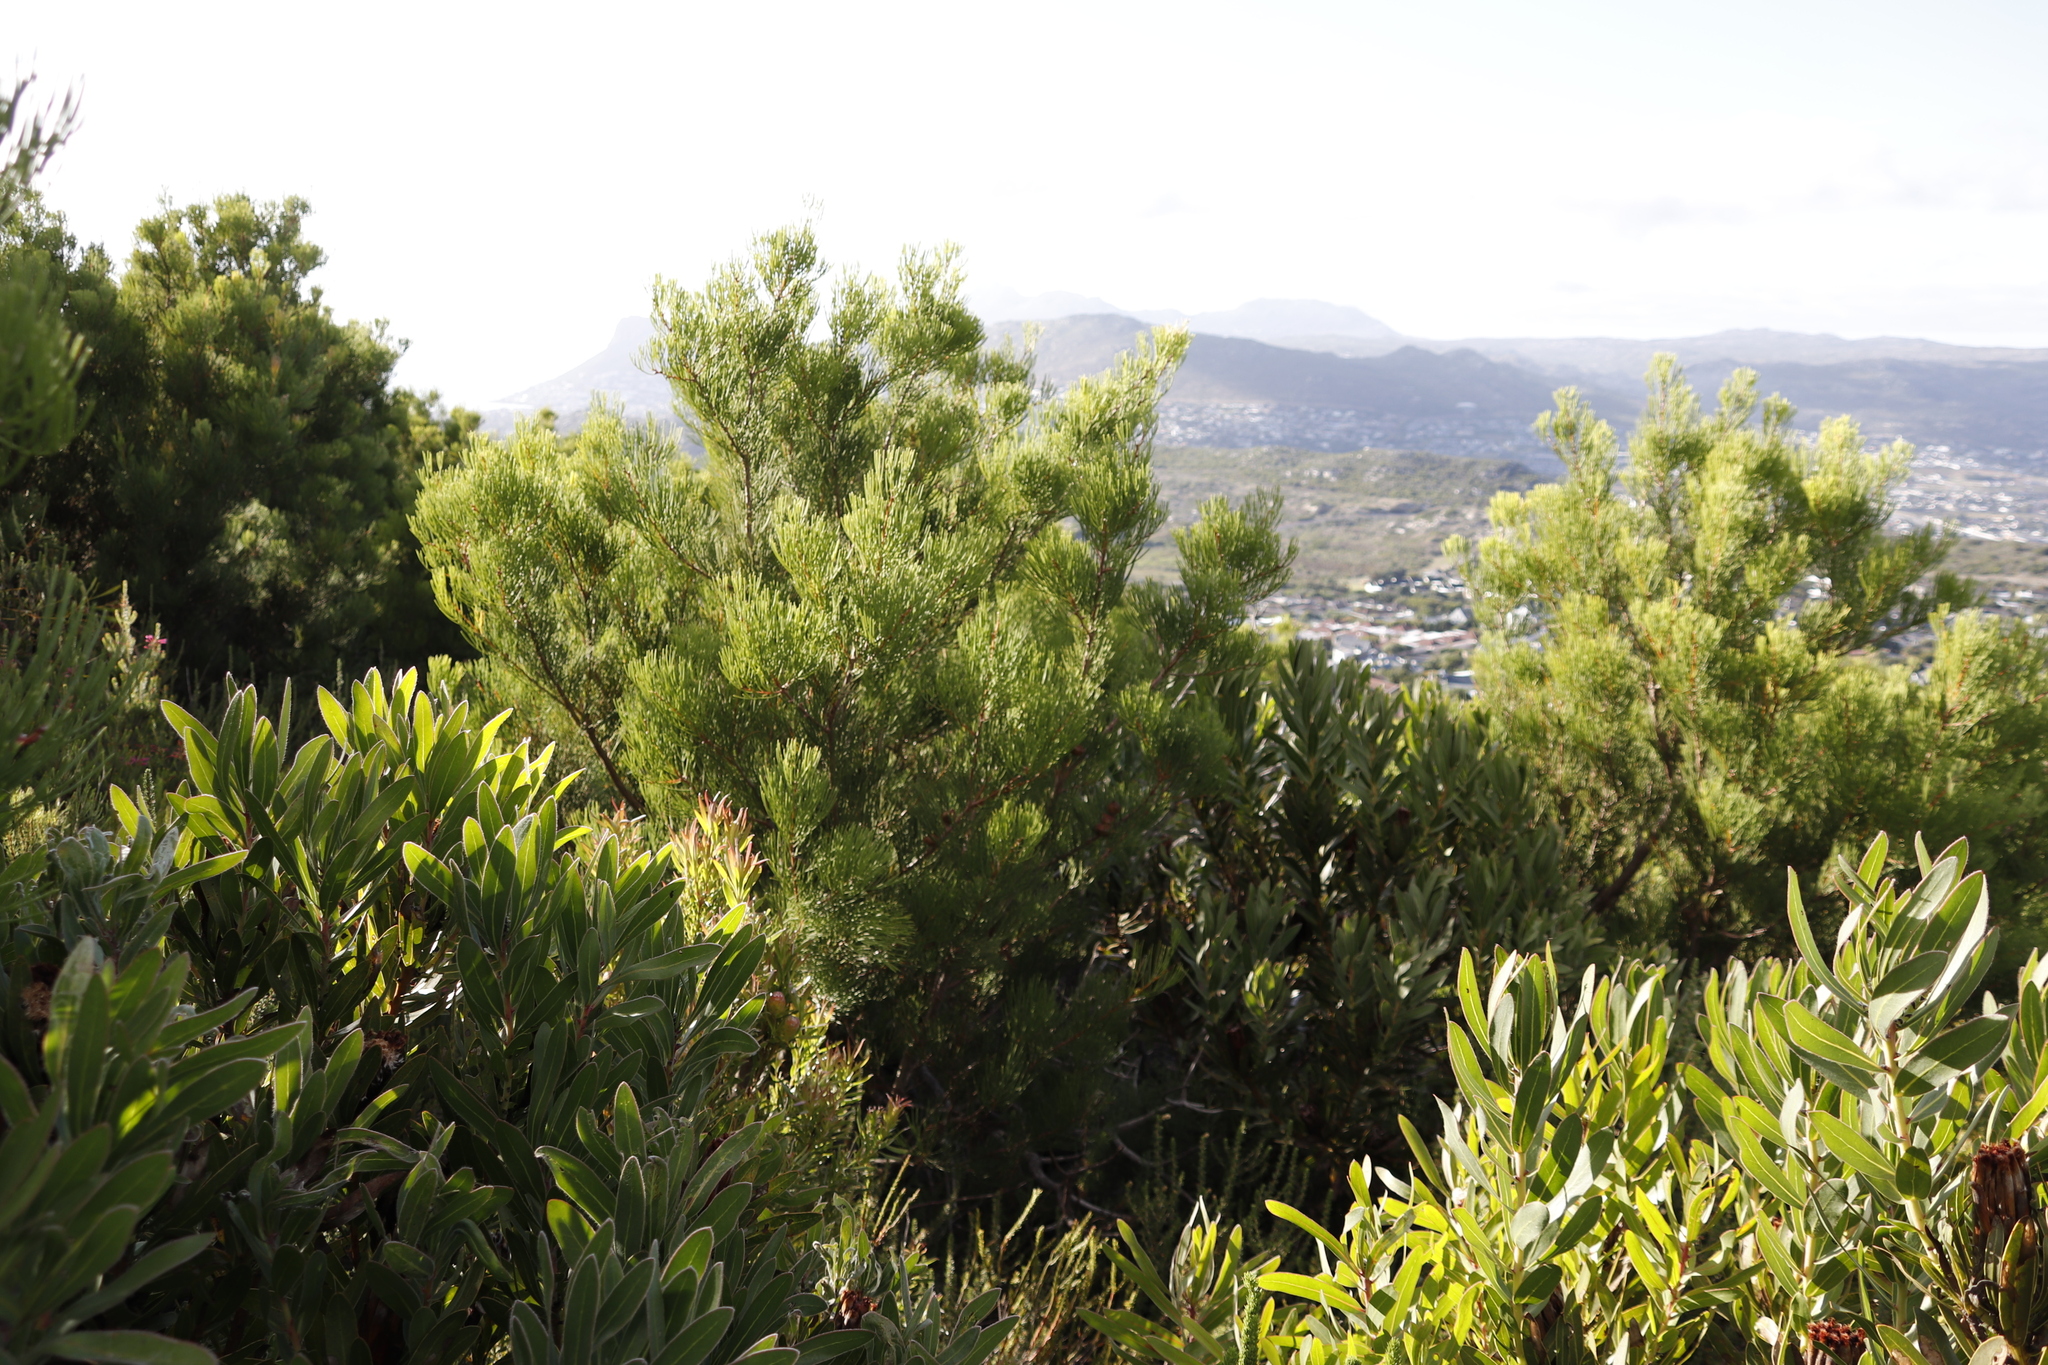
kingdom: Plantae
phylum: Tracheophyta
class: Magnoliopsida
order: Proteales
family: Proteaceae
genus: Hakea
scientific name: Hakea drupacea
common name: Sweet hakea
